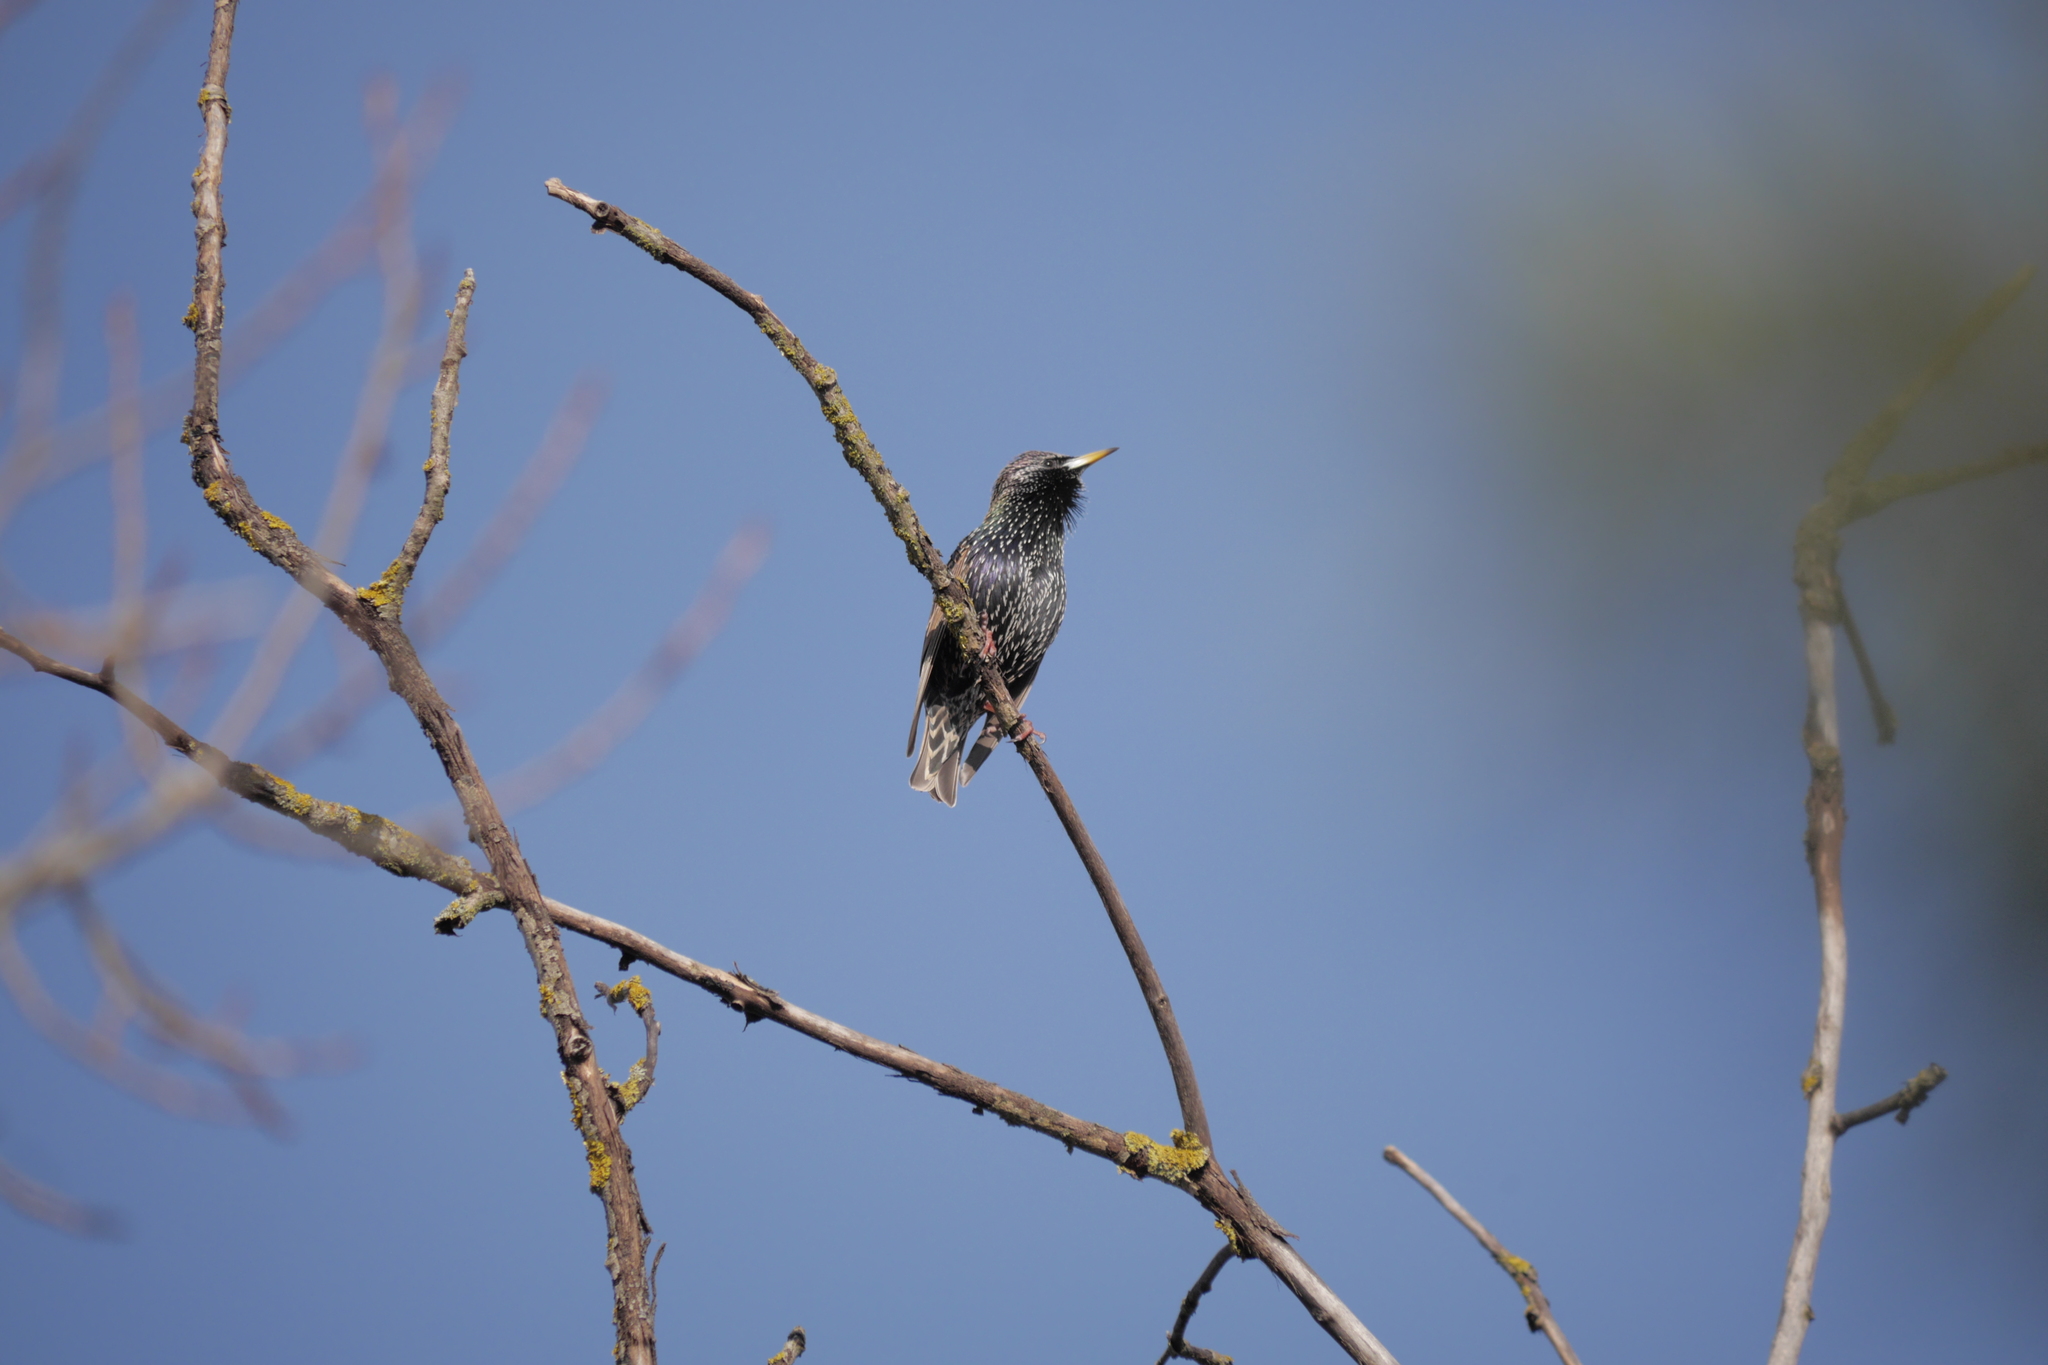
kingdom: Animalia
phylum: Chordata
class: Aves
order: Passeriformes
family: Sturnidae
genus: Sturnus
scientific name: Sturnus vulgaris
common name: Common starling
